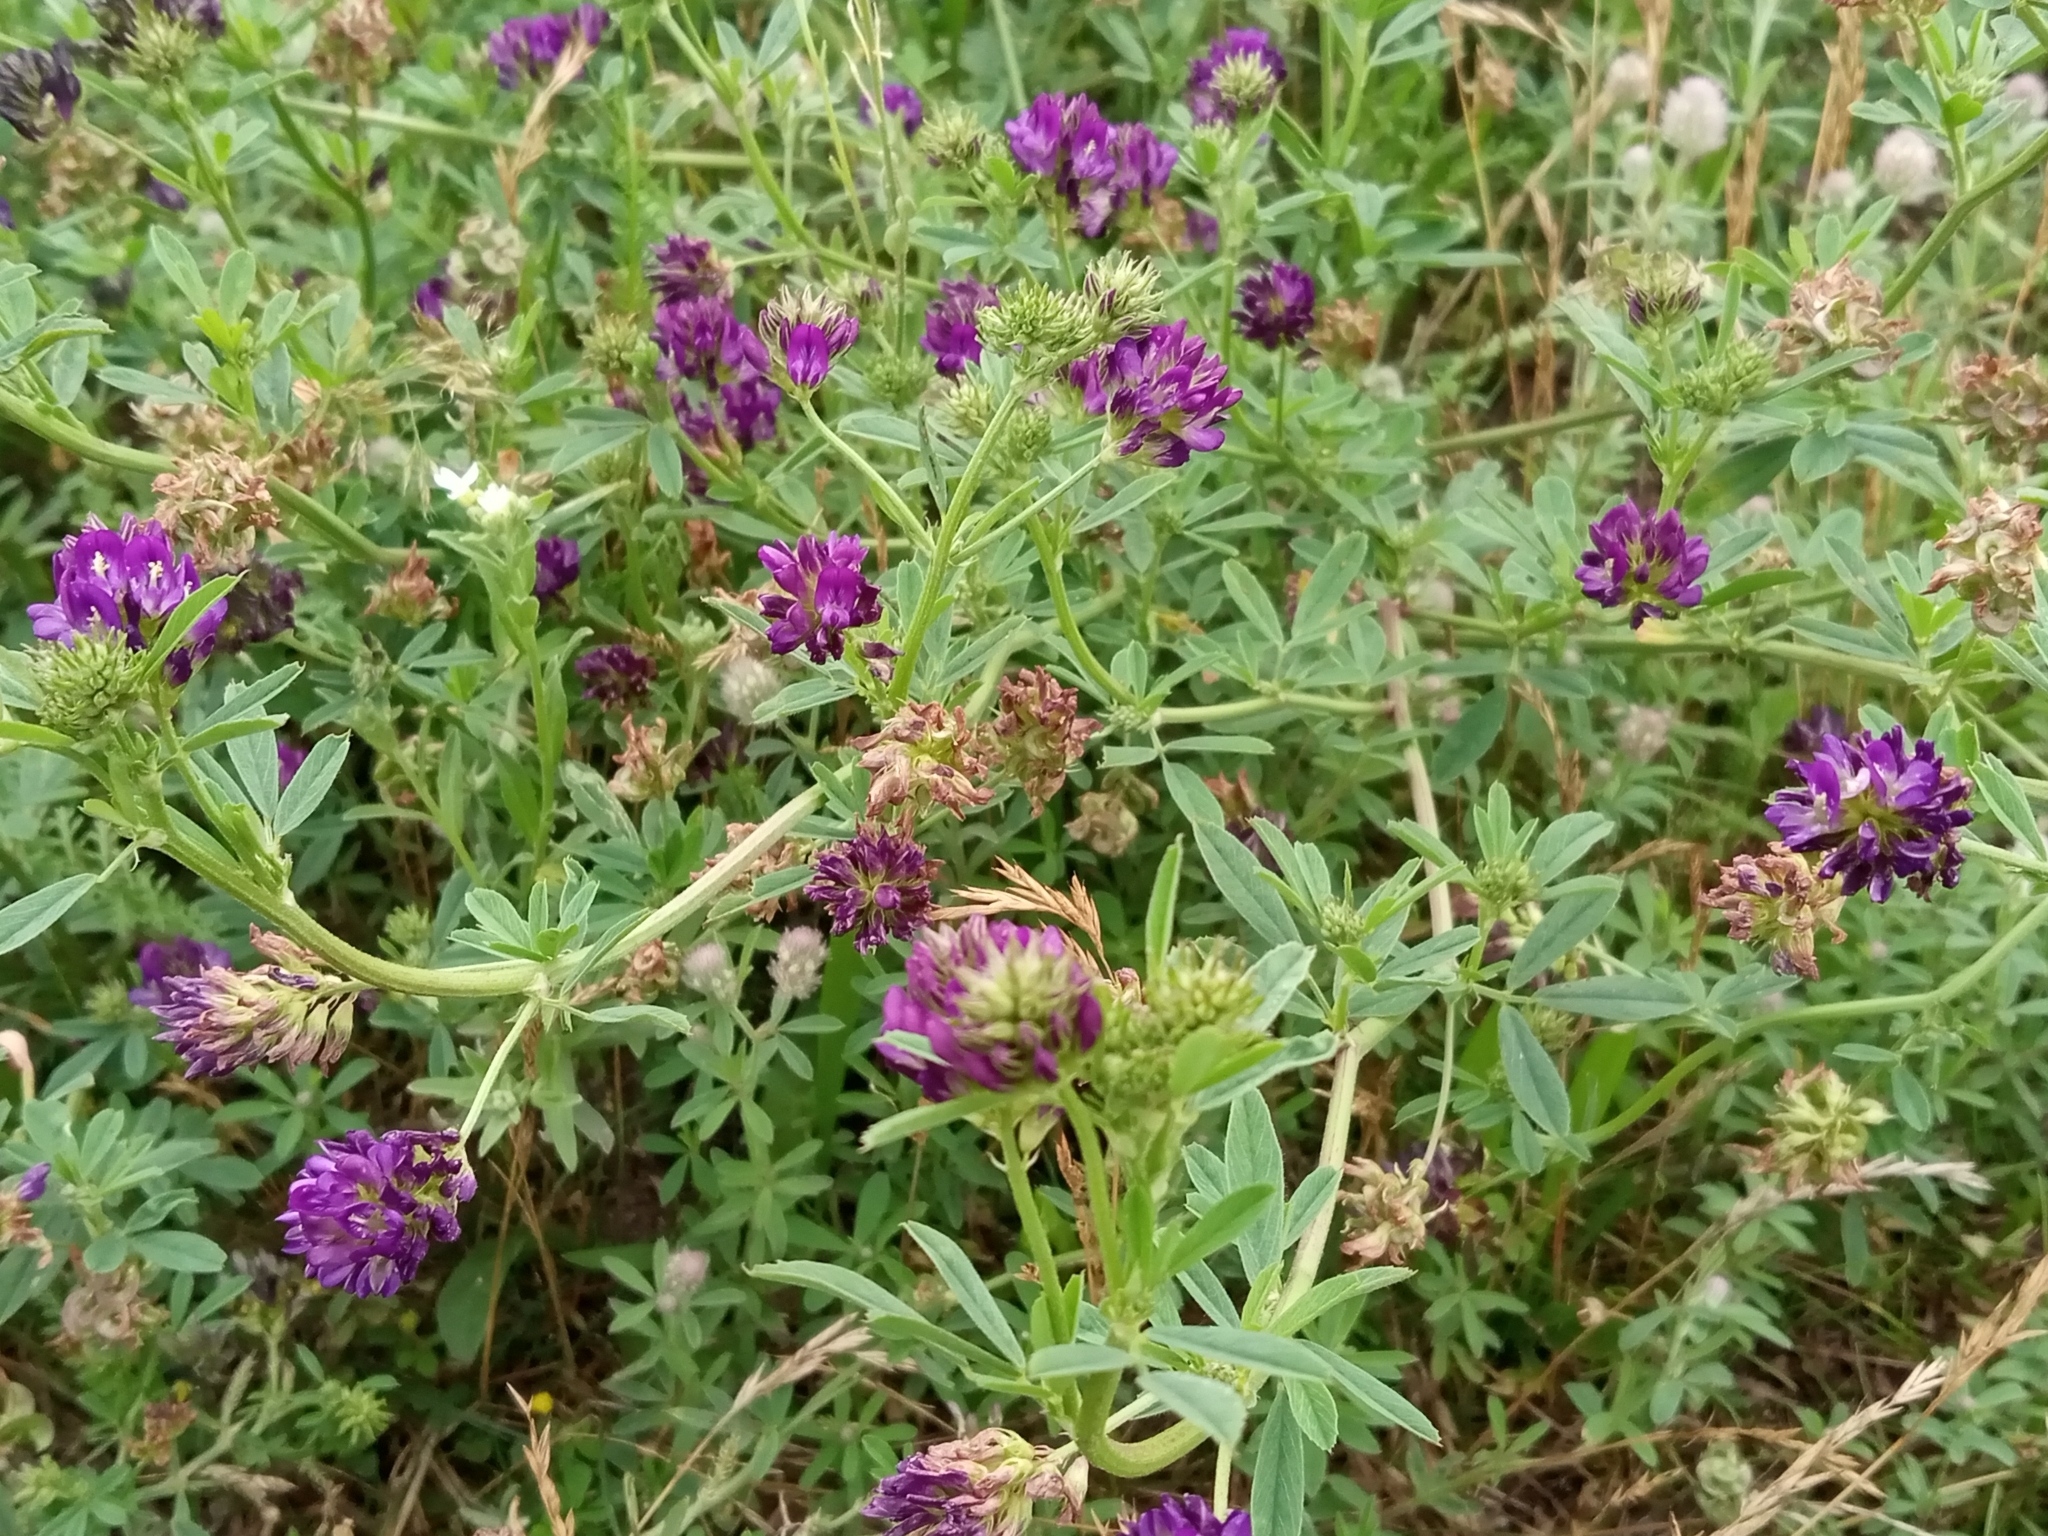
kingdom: Plantae
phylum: Tracheophyta
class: Magnoliopsida
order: Fabales
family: Fabaceae
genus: Medicago
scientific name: Medicago sativa
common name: Alfalfa
